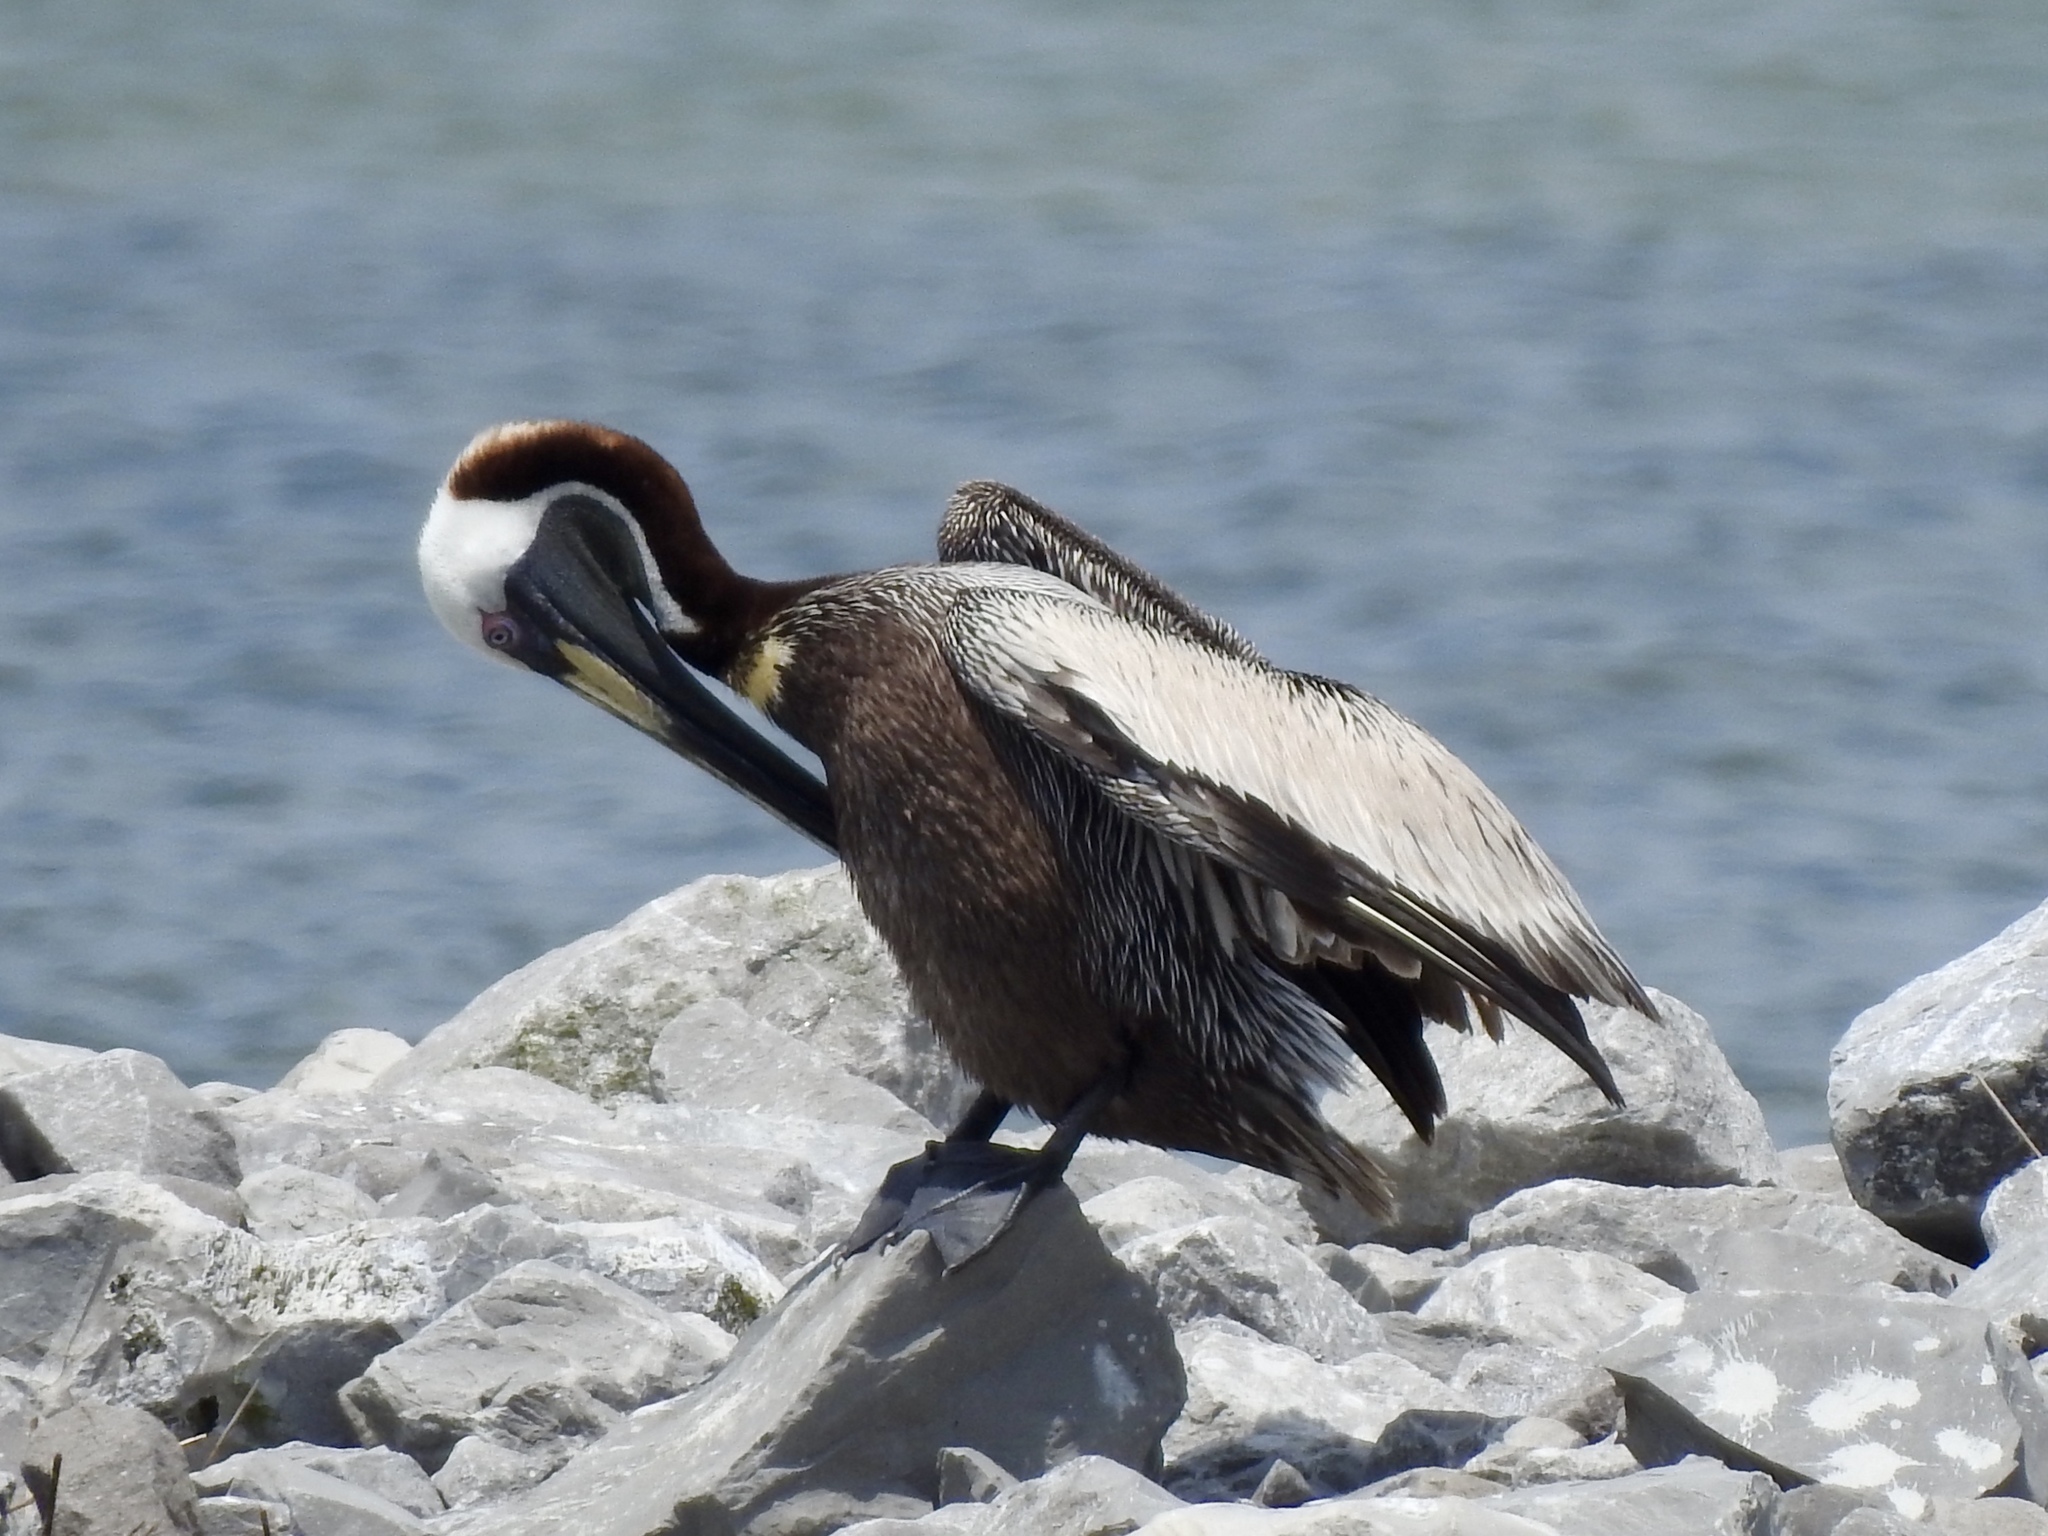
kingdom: Animalia
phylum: Chordata
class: Aves
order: Pelecaniformes
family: Pelecanidae
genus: Pelecanus
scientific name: Pelecanus occidentalis
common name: Brown pelican
